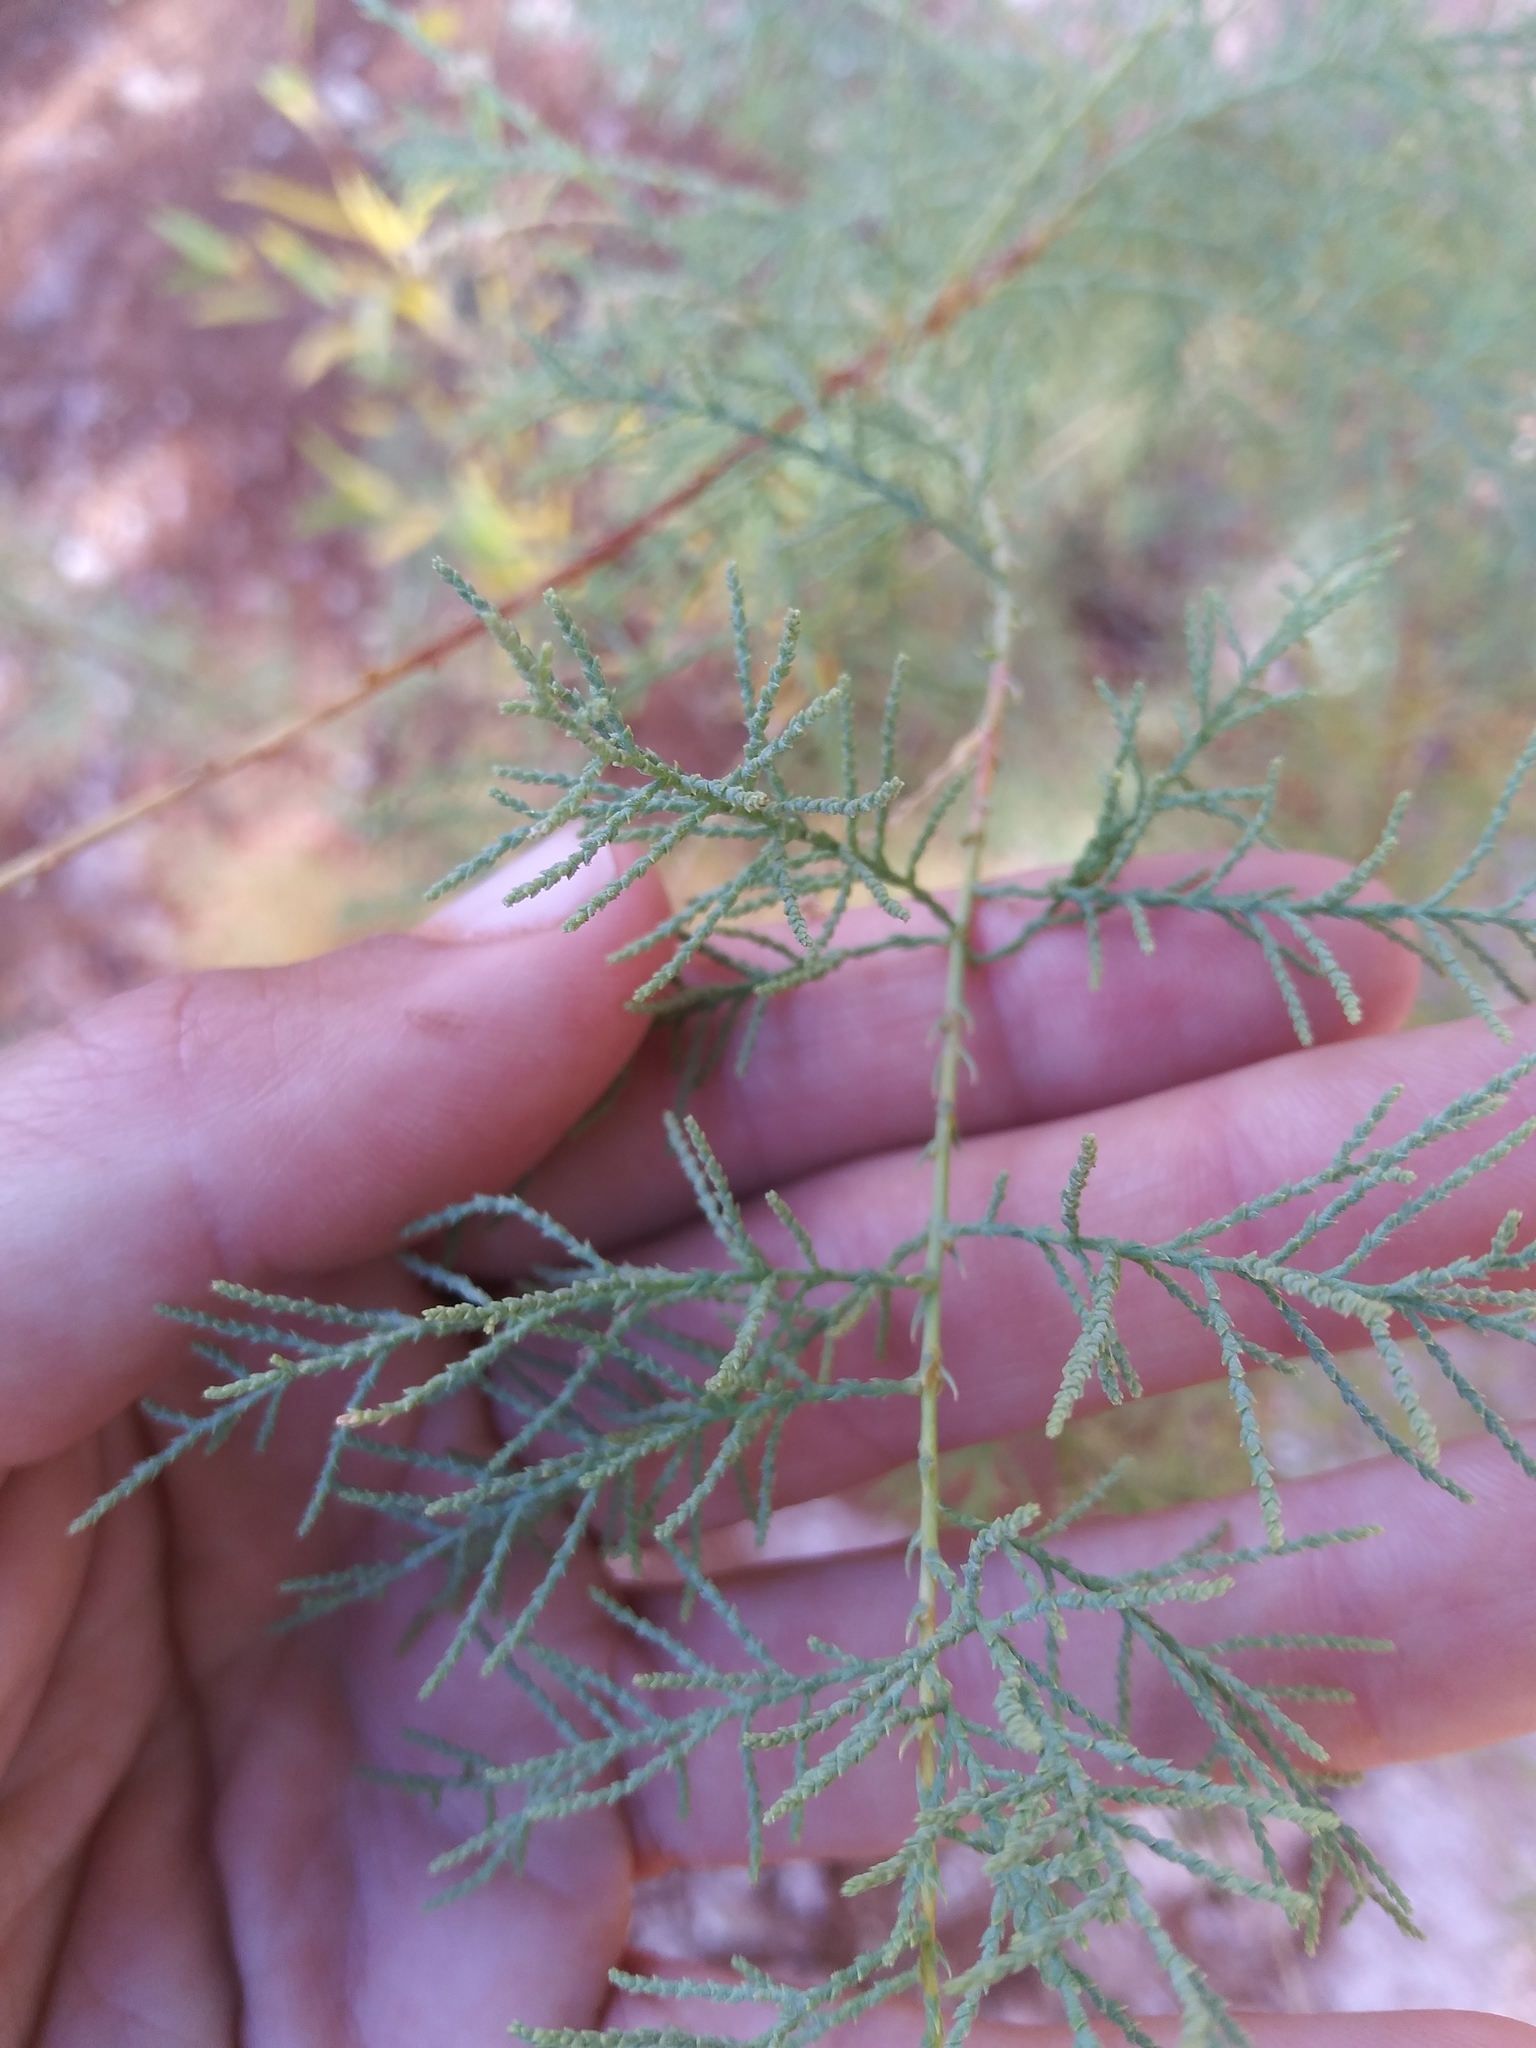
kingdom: Plantae
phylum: Tracheophyta
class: Magnoliopsida
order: Caryophyllales
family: Tamaricaceae
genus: Tamarix
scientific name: Tamarix ramosissima
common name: Pink tamarisk
